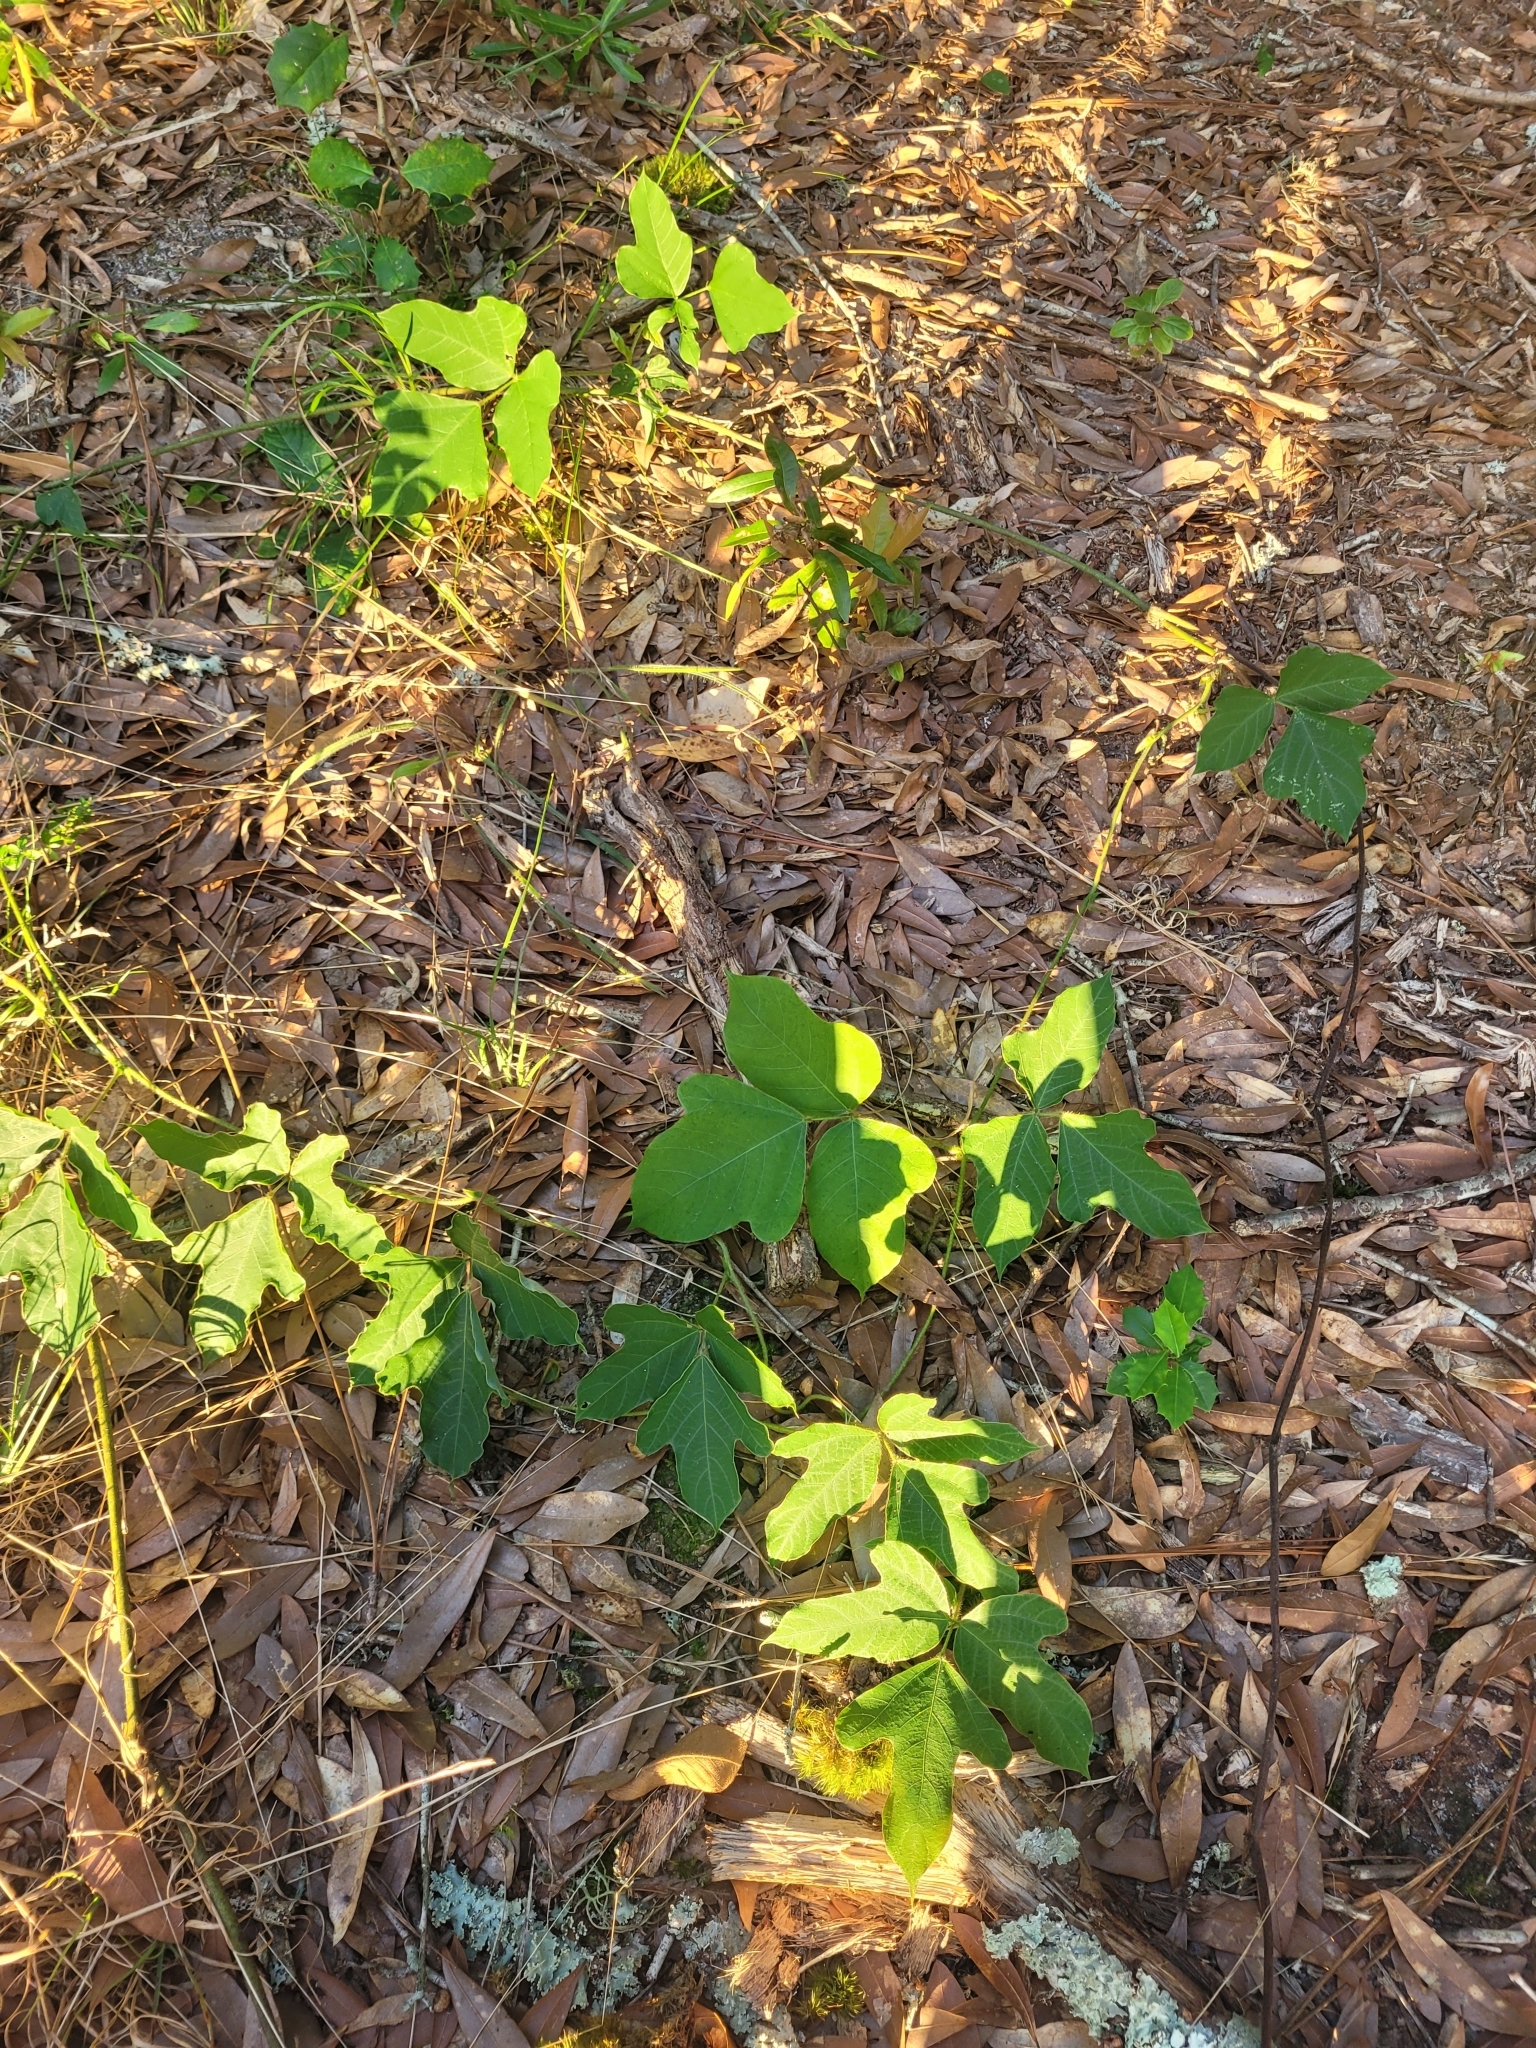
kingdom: Plantae
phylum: Tracheophyta
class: Magnoliopsida
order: Fabales
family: Fabaceae
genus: Pueraria
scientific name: Pueraria montana
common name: Kudzu
